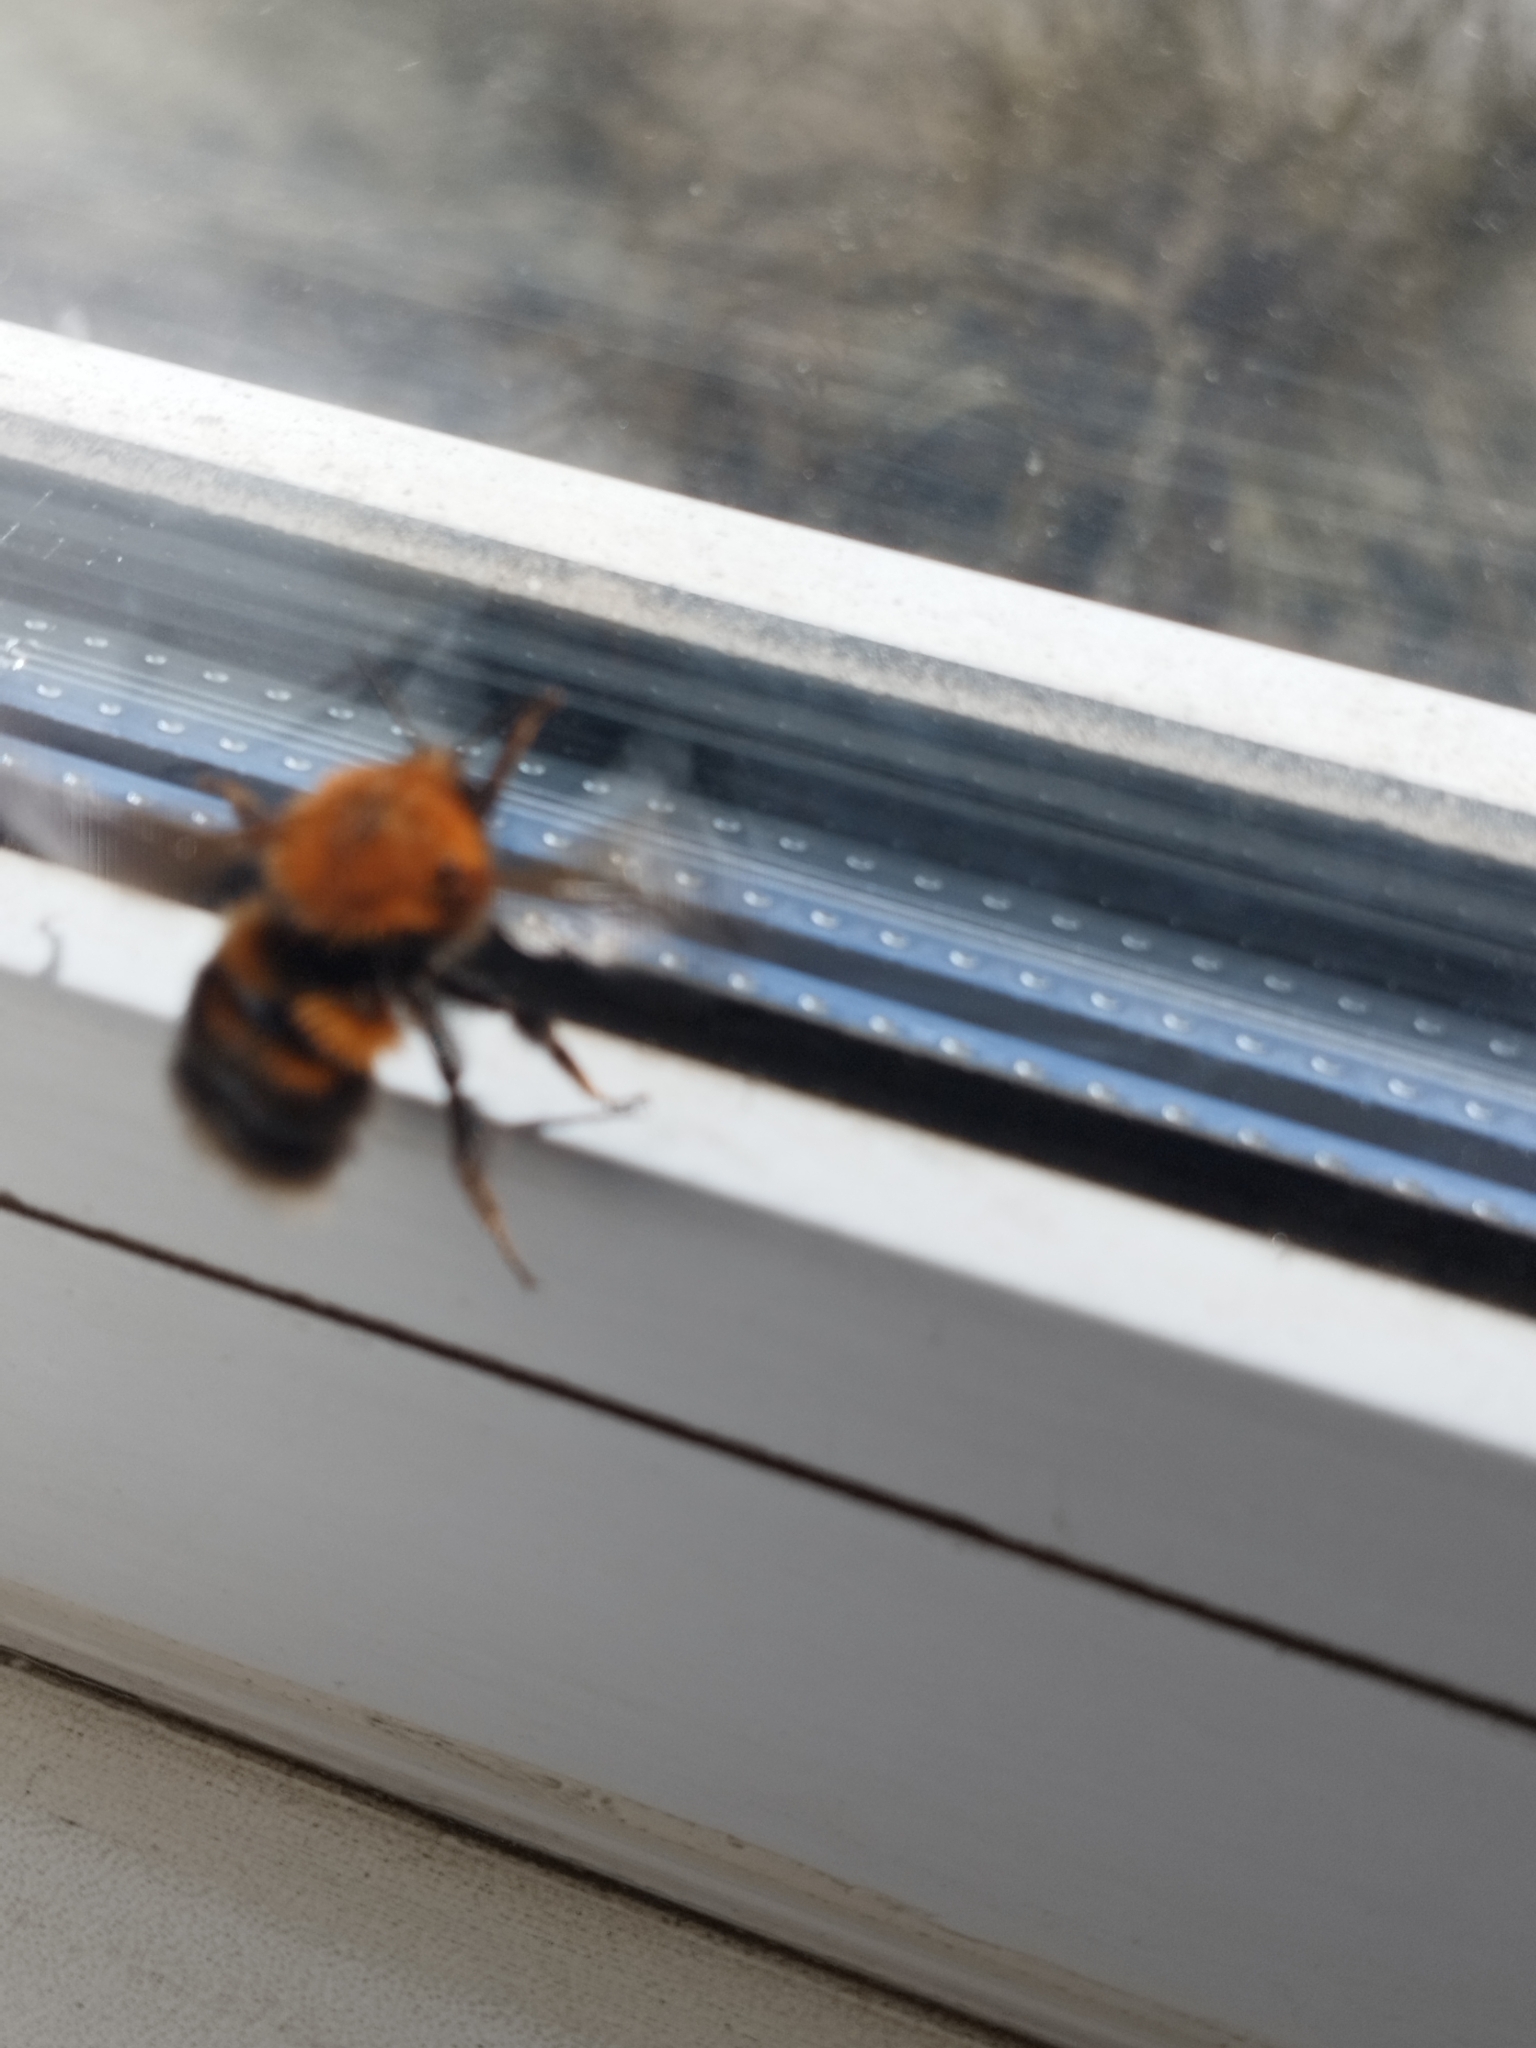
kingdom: Animalia
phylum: Arthropoda
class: Insecta
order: Hymenoptera
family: Apidae
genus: Bombus
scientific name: Bombus hypnorum
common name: New garden bumblebee
